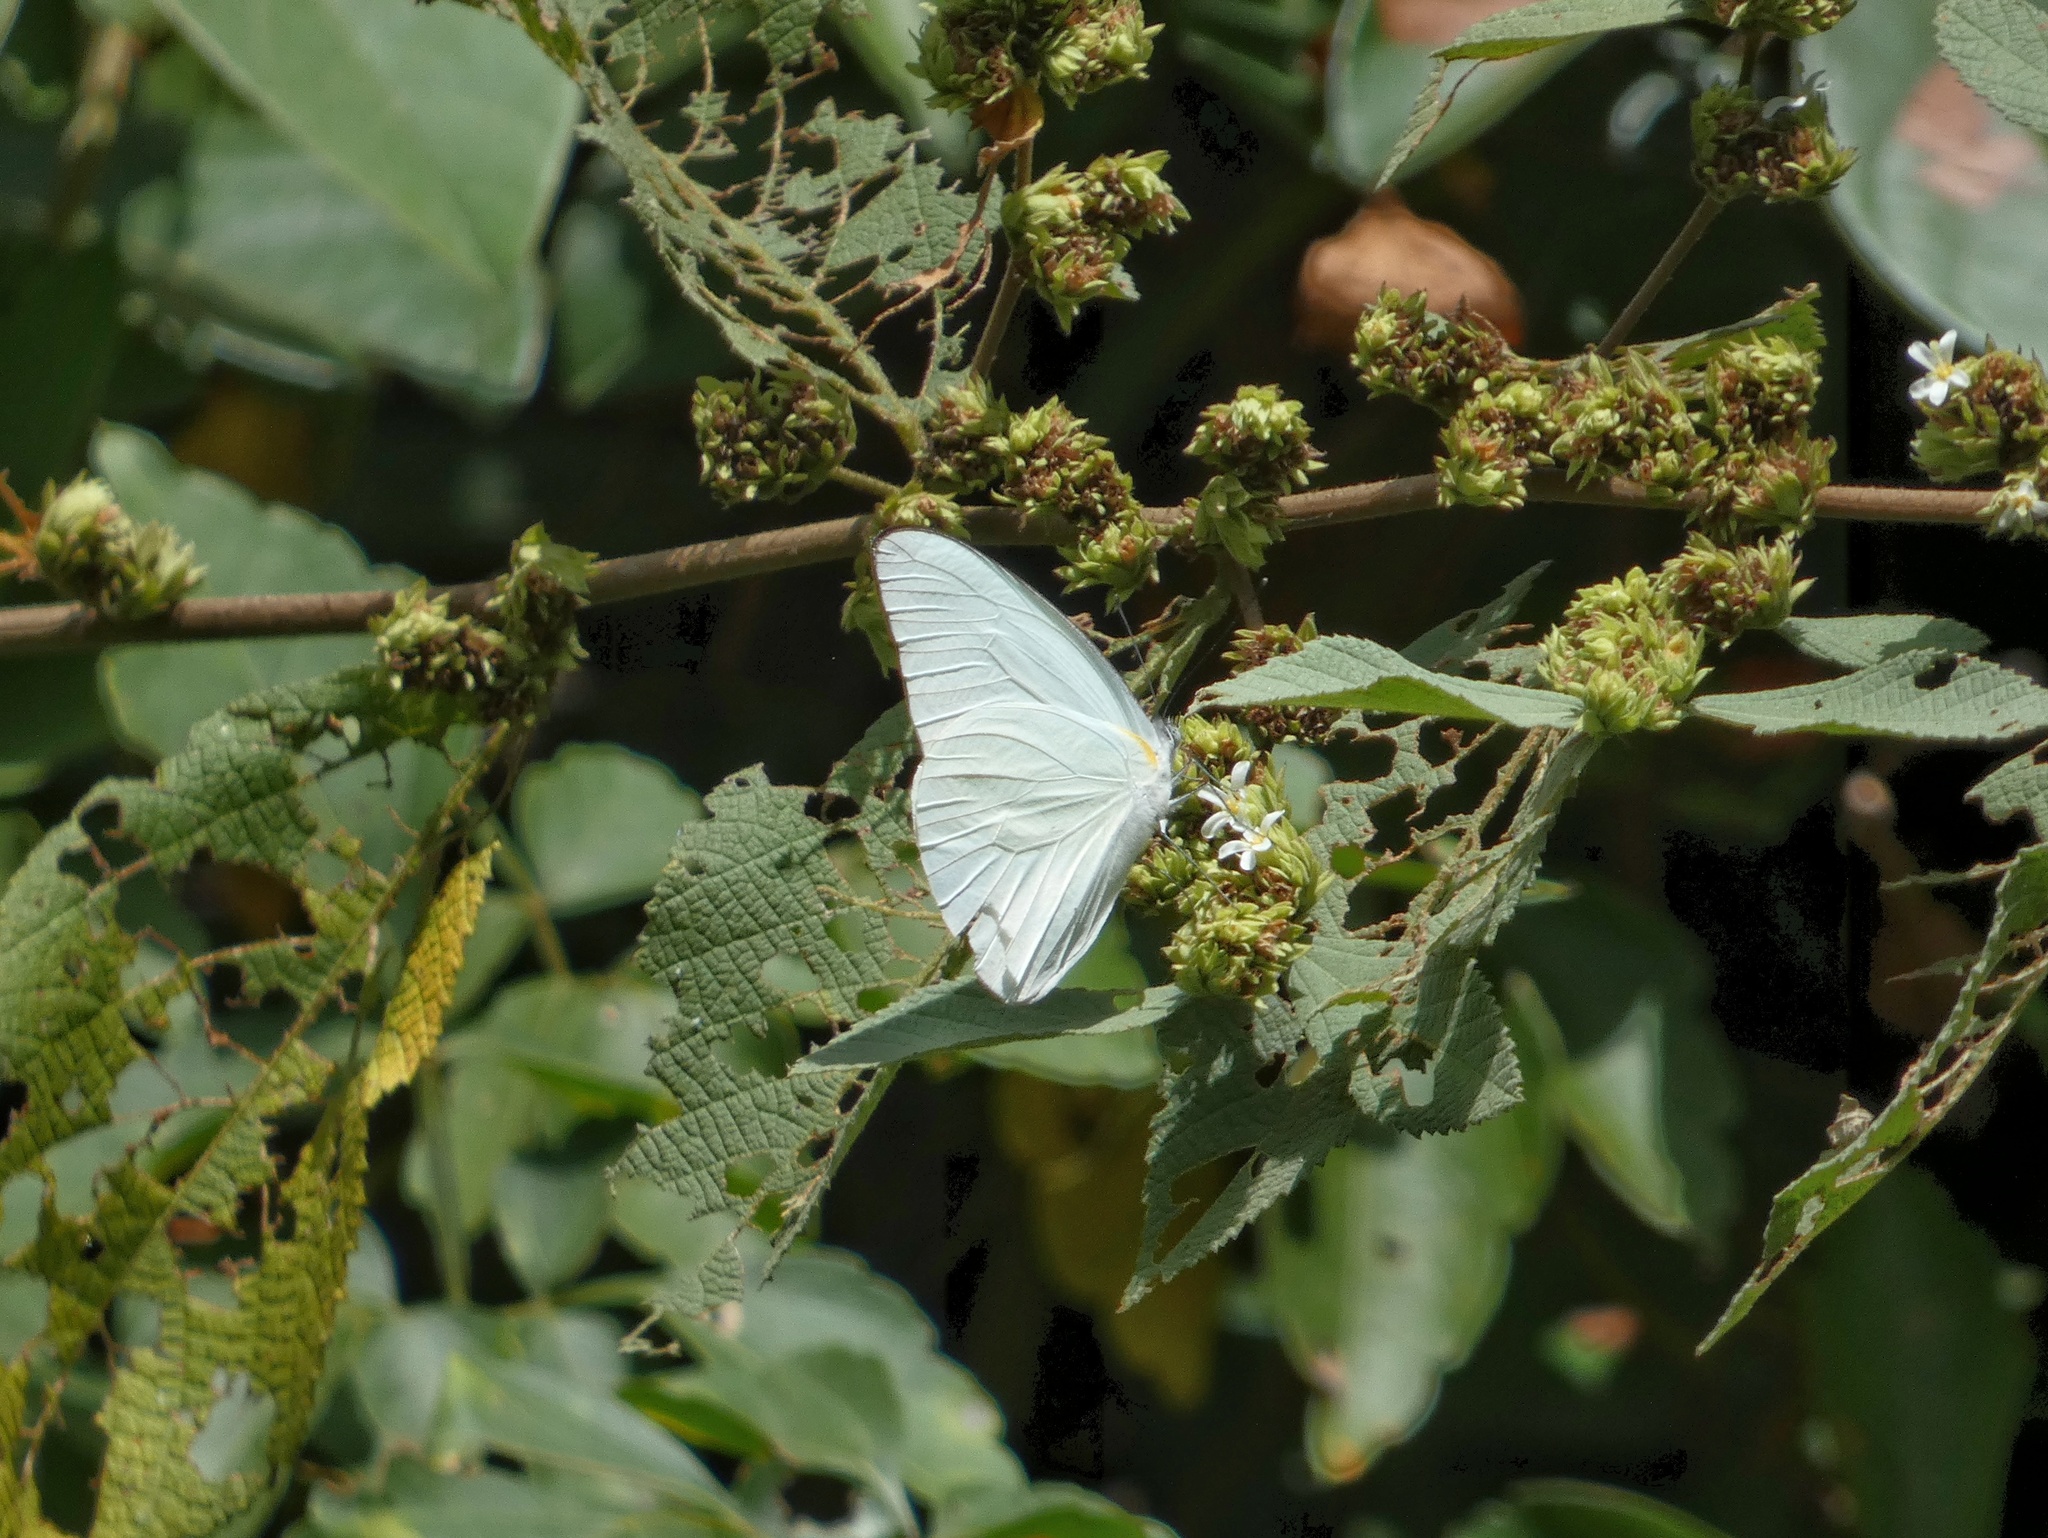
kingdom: Animalia
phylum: Arthropoda
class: Insecta
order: Lepidoptera
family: Pieridae
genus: Glutophrissa
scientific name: Glutophrissa drusilla
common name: Florida white
